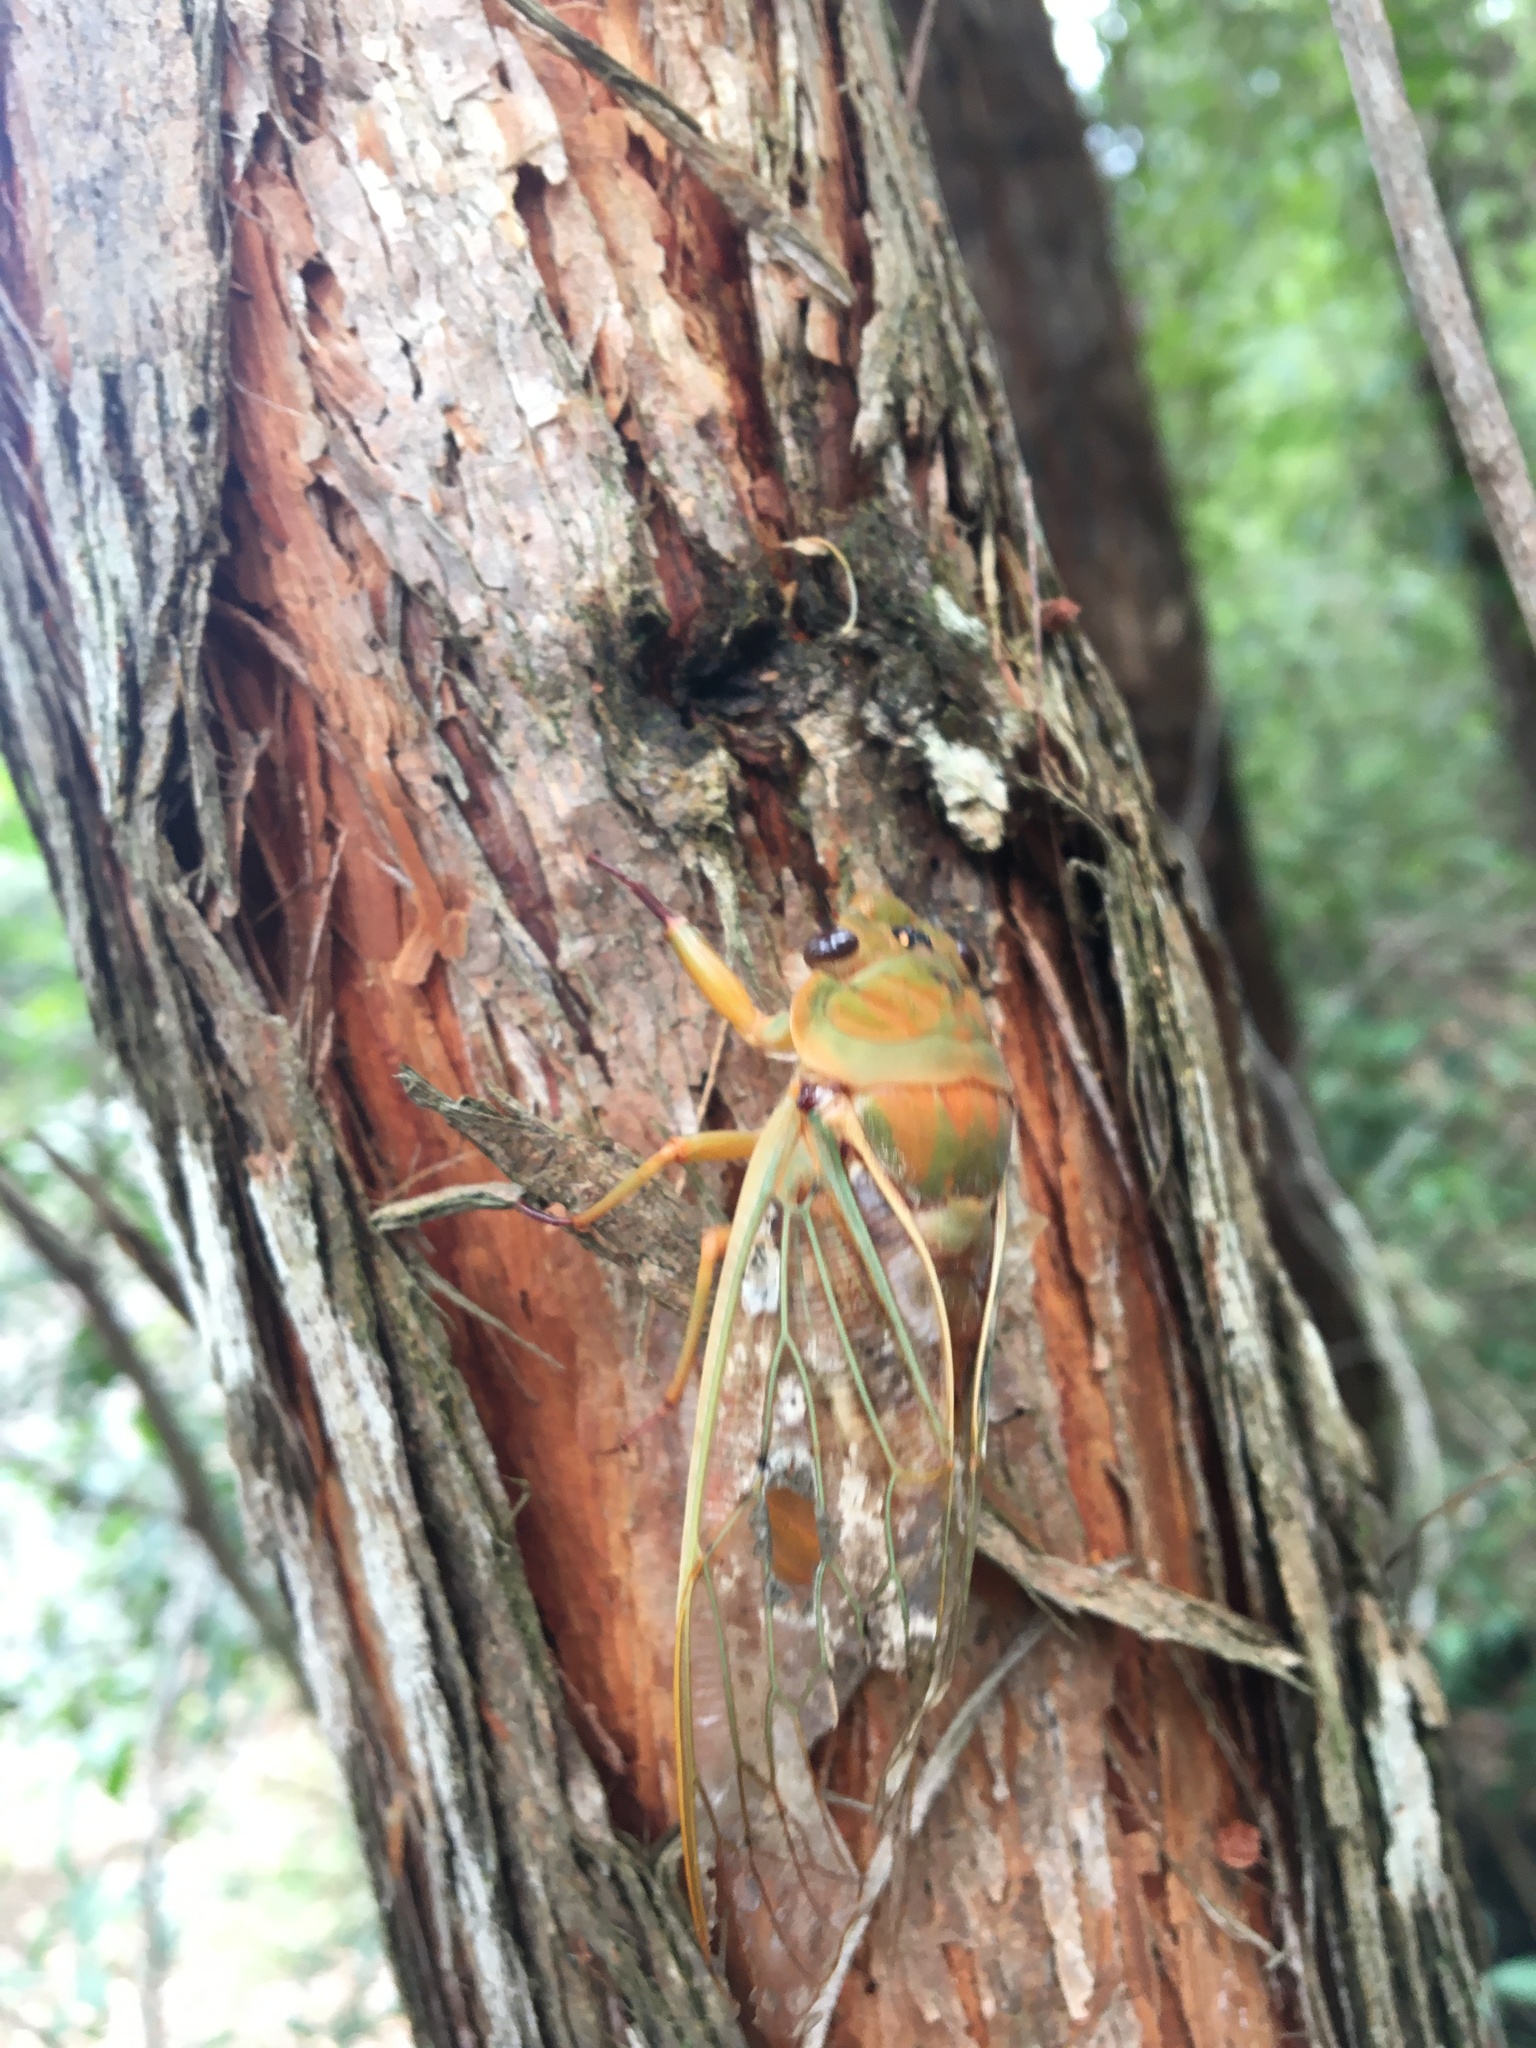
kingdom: Animalia
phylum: Arthropoda
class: Insecta
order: Hemiptera
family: Cicadidae
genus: Cyclochila
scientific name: Cyclochila australasiae
